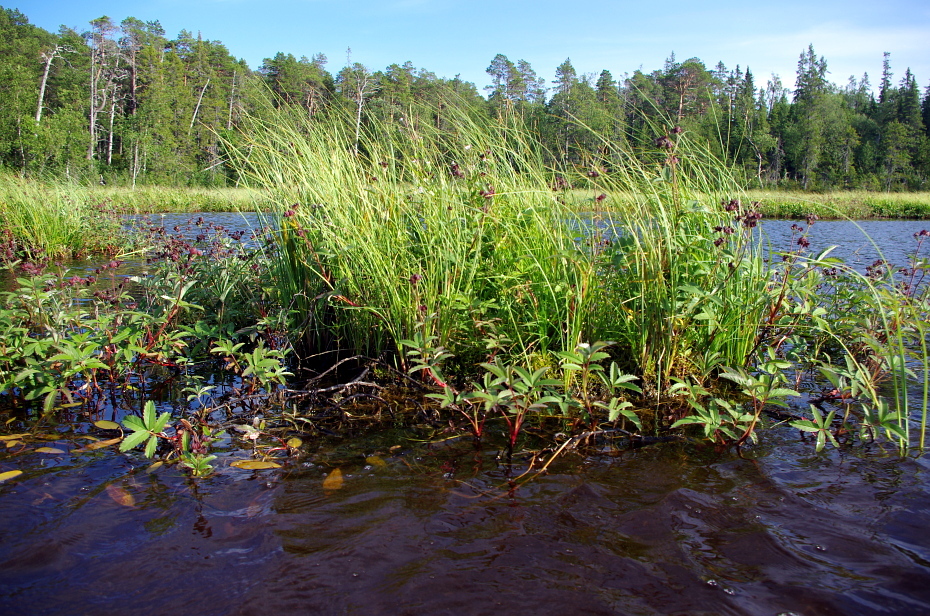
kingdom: Plantae
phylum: Tracheophyta
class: Magnoliopsida
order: Rosales
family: Rosaceae
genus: Comarum
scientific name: Comarum palustre
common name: Marsh cinquefoil
